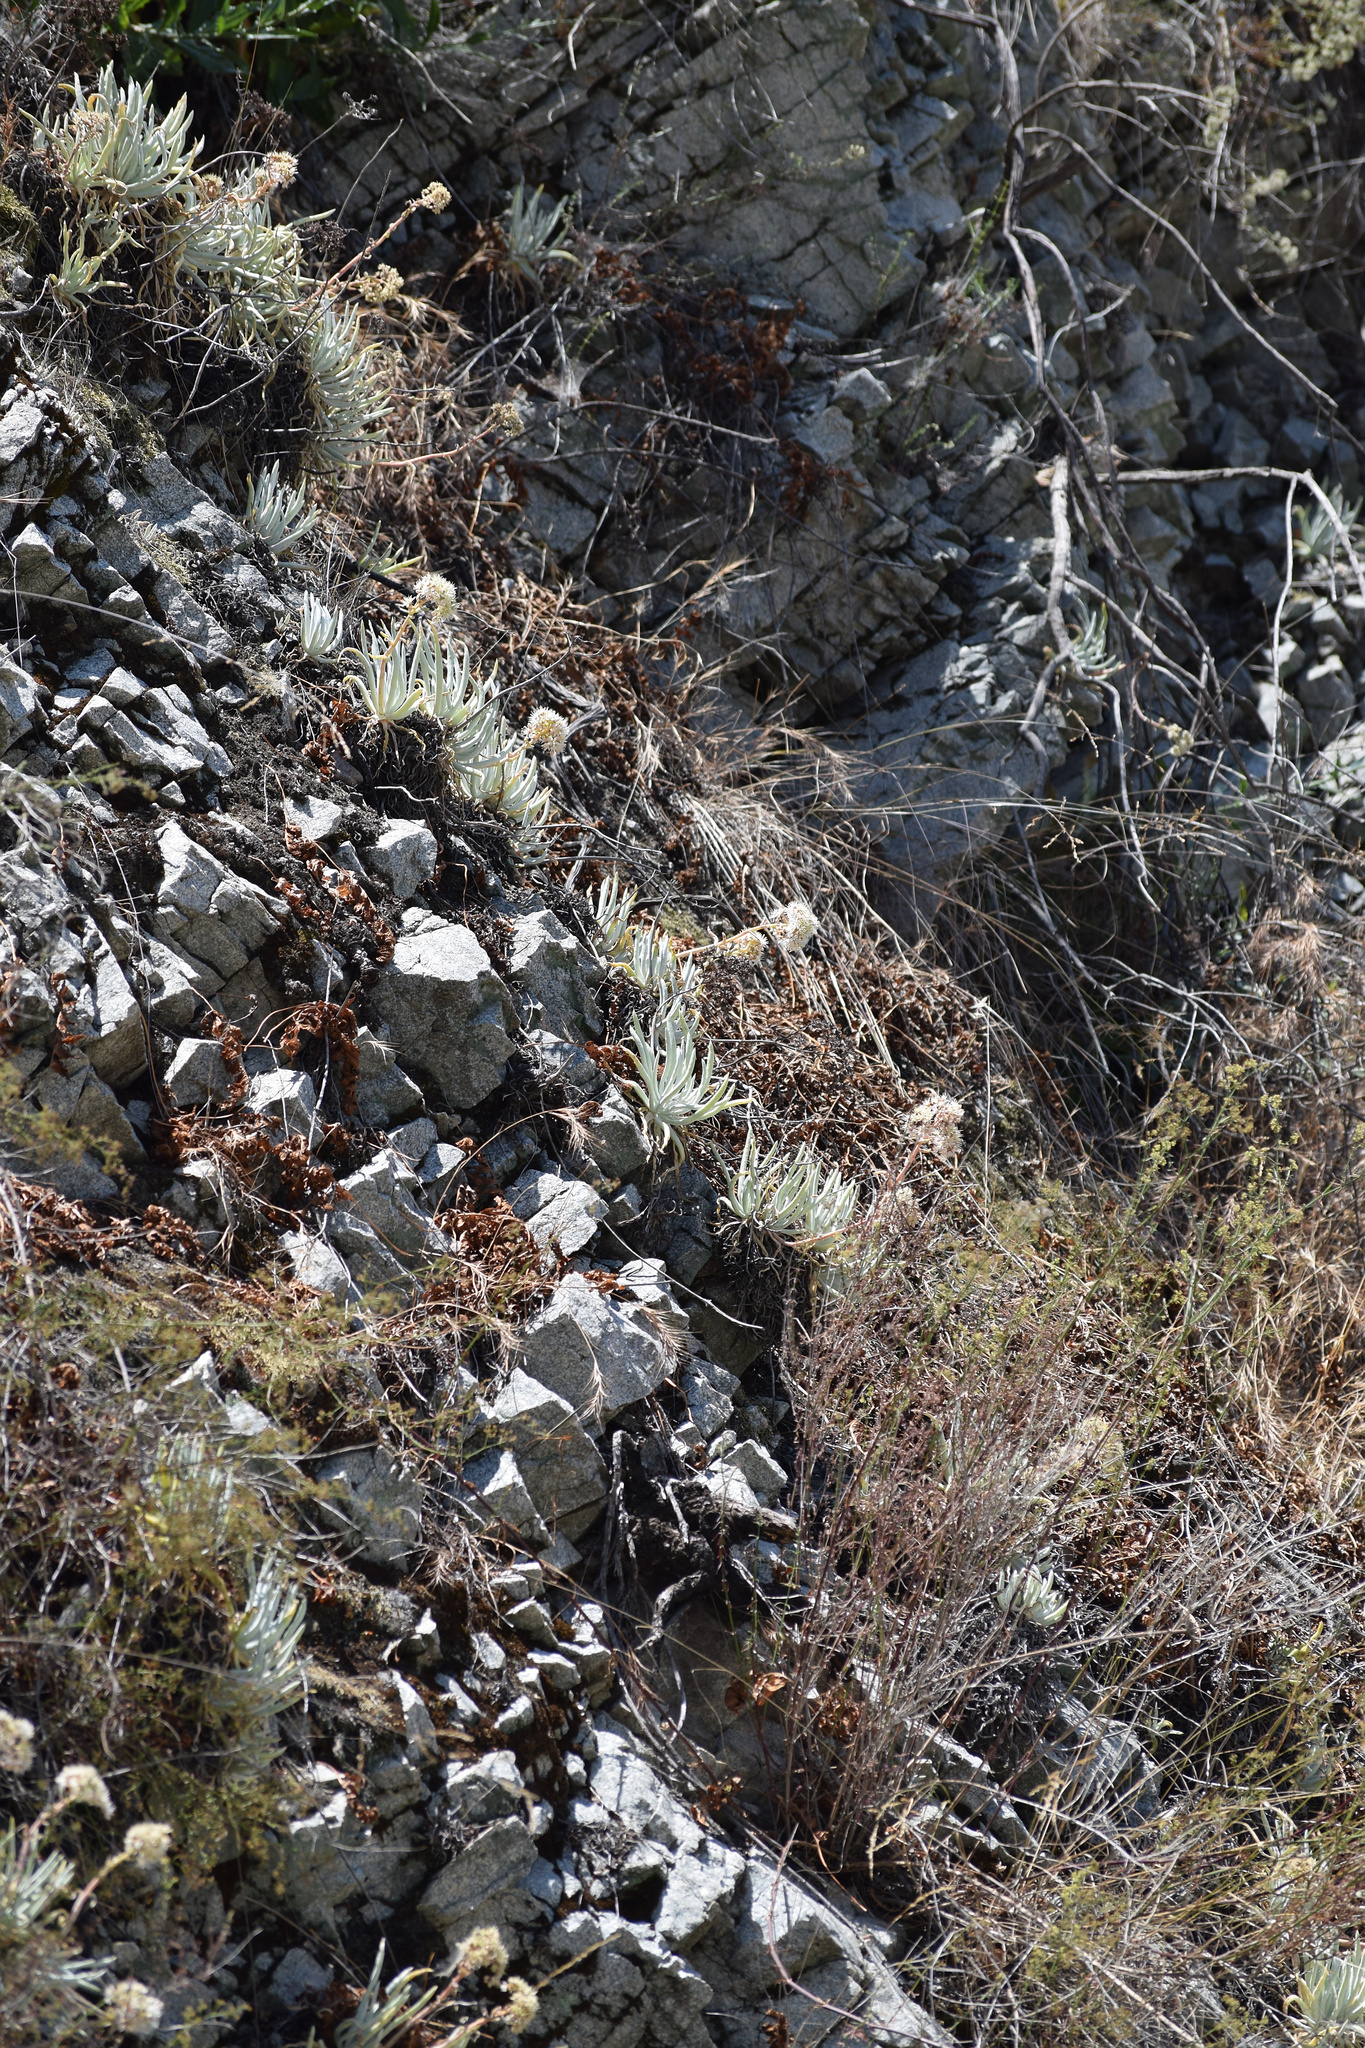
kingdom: Plantae
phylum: Tracheophyta
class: Magnoliopsida
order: Saxifragales
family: Crassulaceae
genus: Dudleya
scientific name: Dudleya densiflora
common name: San gabriel mountains dudleya
